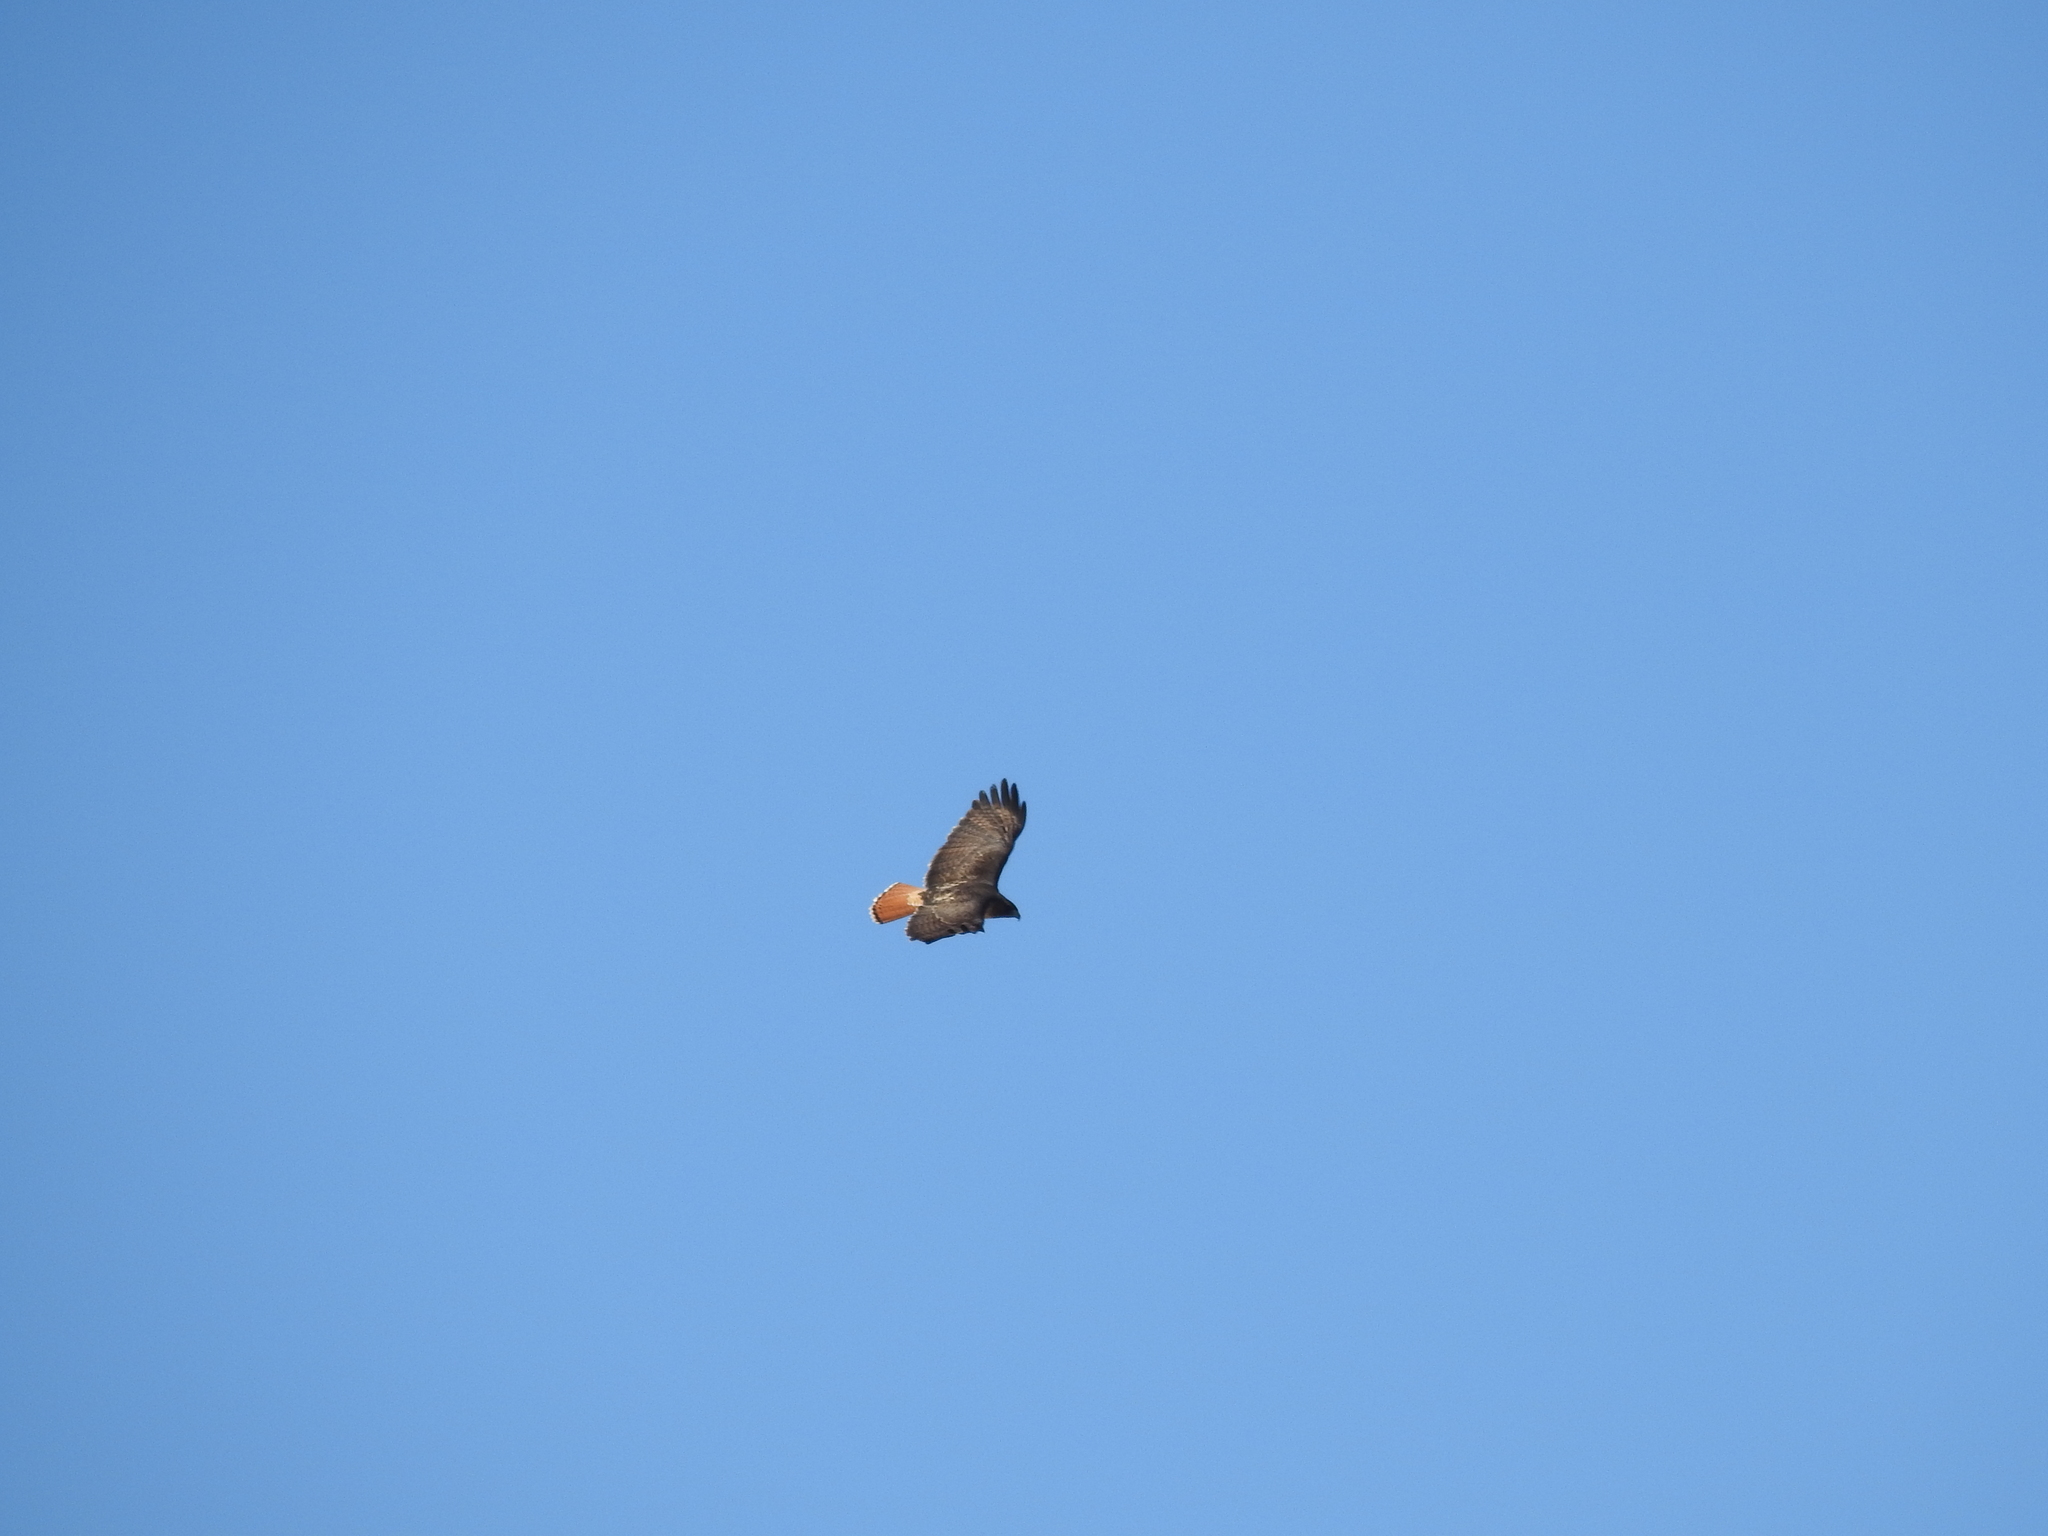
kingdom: Animalia
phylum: Chordata
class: Aves
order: Accipitriformes
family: Accipitridae
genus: Buteo
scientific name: Buteo jamaicensis
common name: Red-tailed hawk
